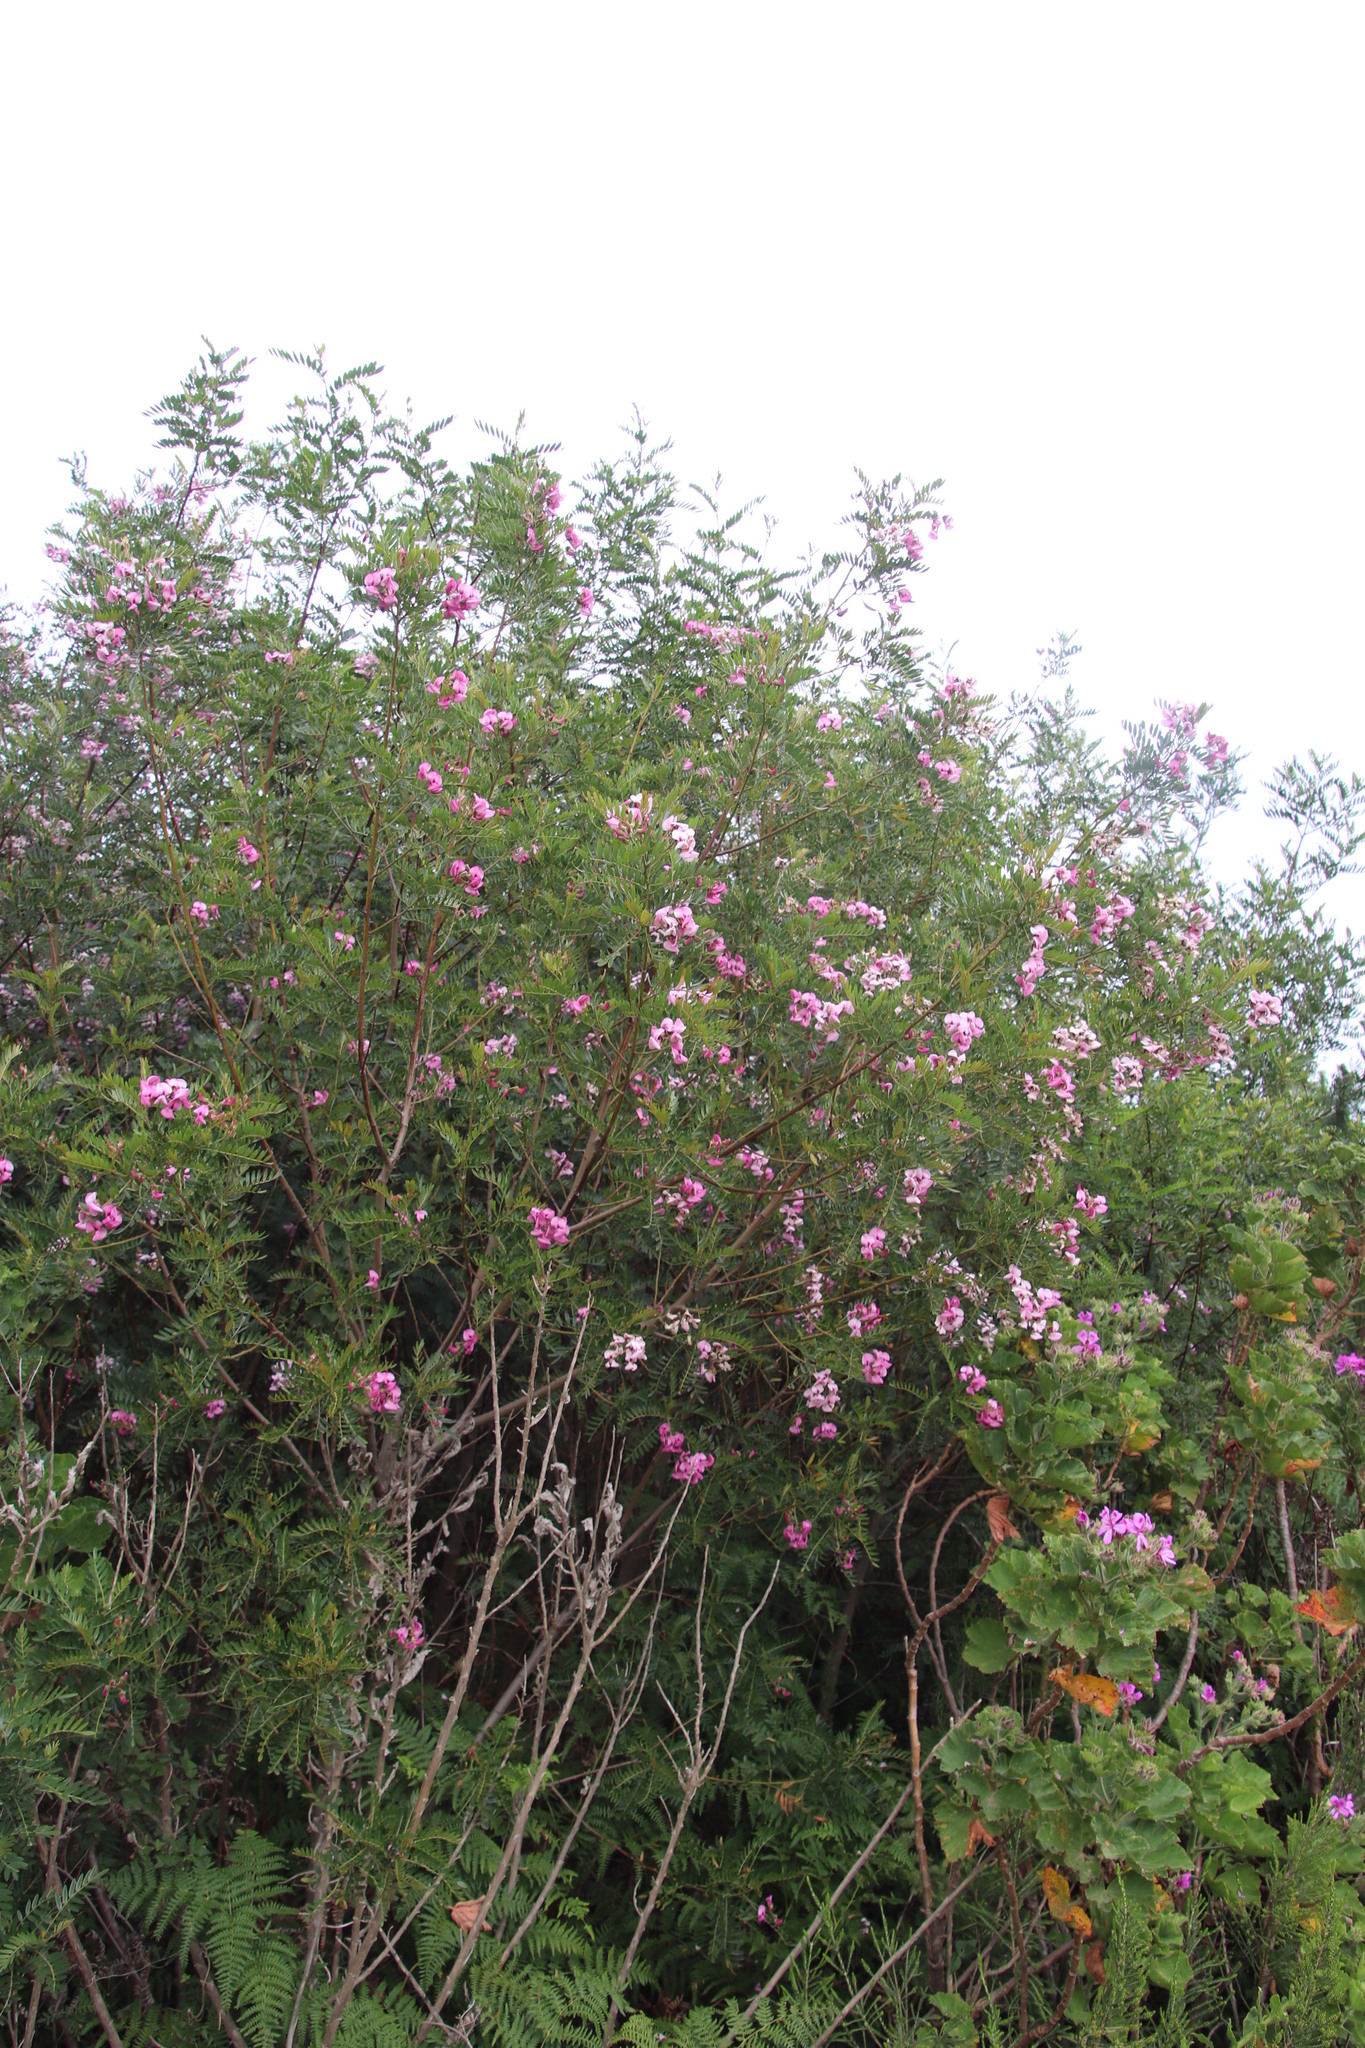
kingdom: Plantae
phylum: Tracheophyta
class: Magnoliopsida
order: Fabales
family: Fabaceae
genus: Virgilia
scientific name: Virgilia oroboides
